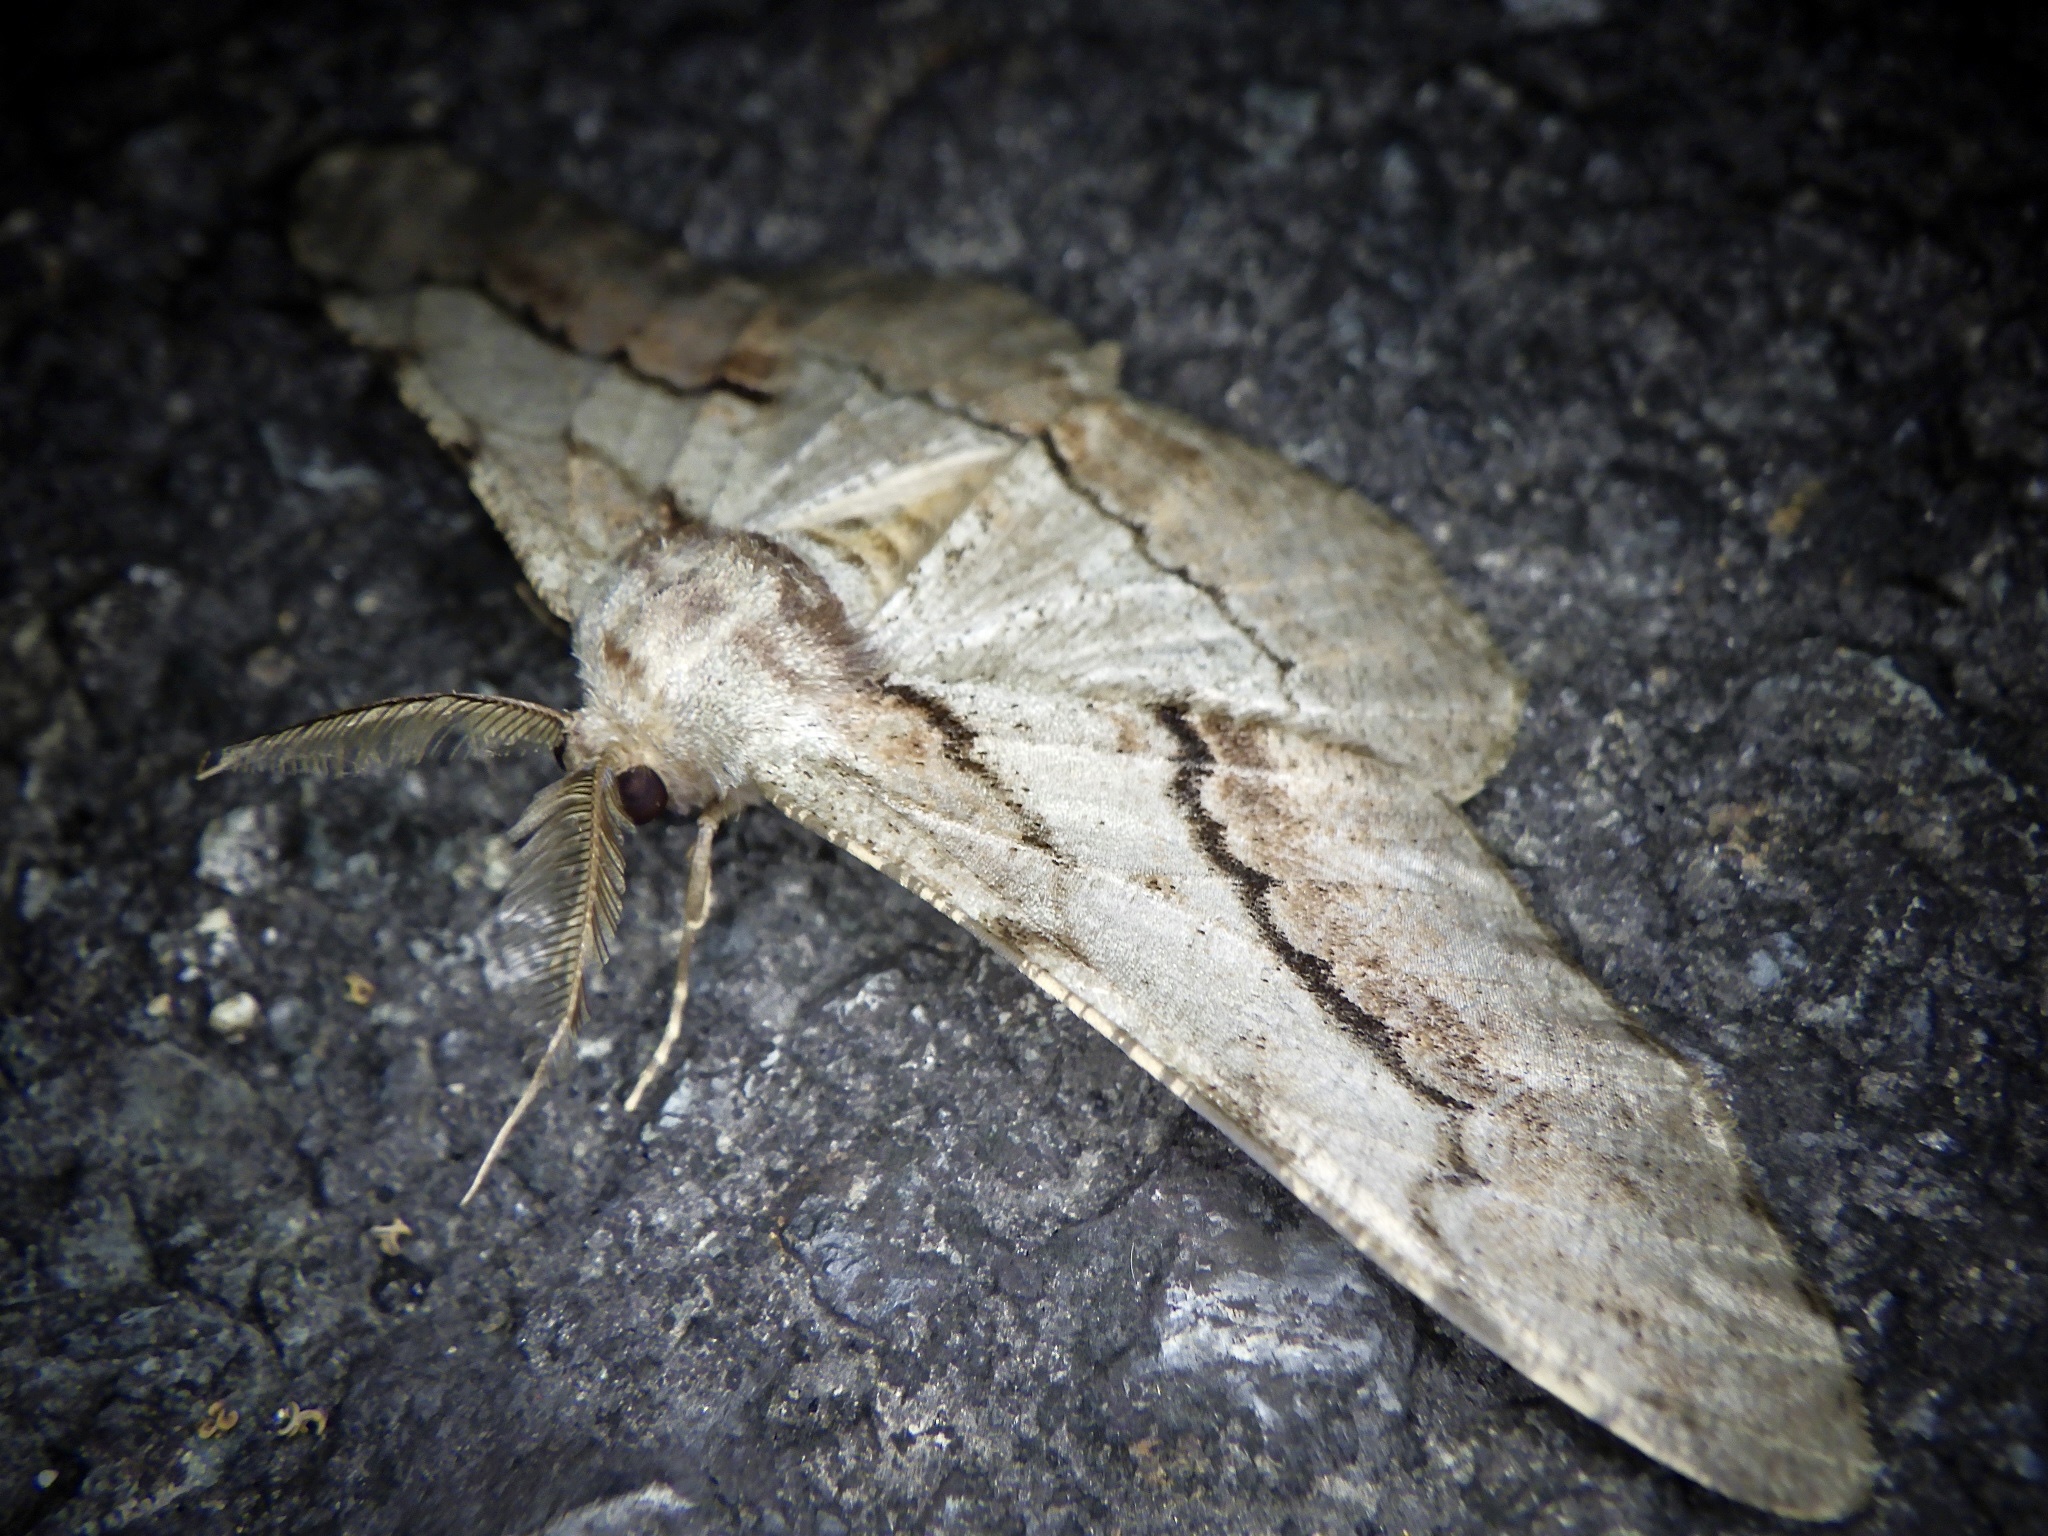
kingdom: Animalia
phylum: Arthropoda
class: Insecta
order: Lepidoptera
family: Geometridae
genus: Phthonosema
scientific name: Phthonosema tendinosaria
